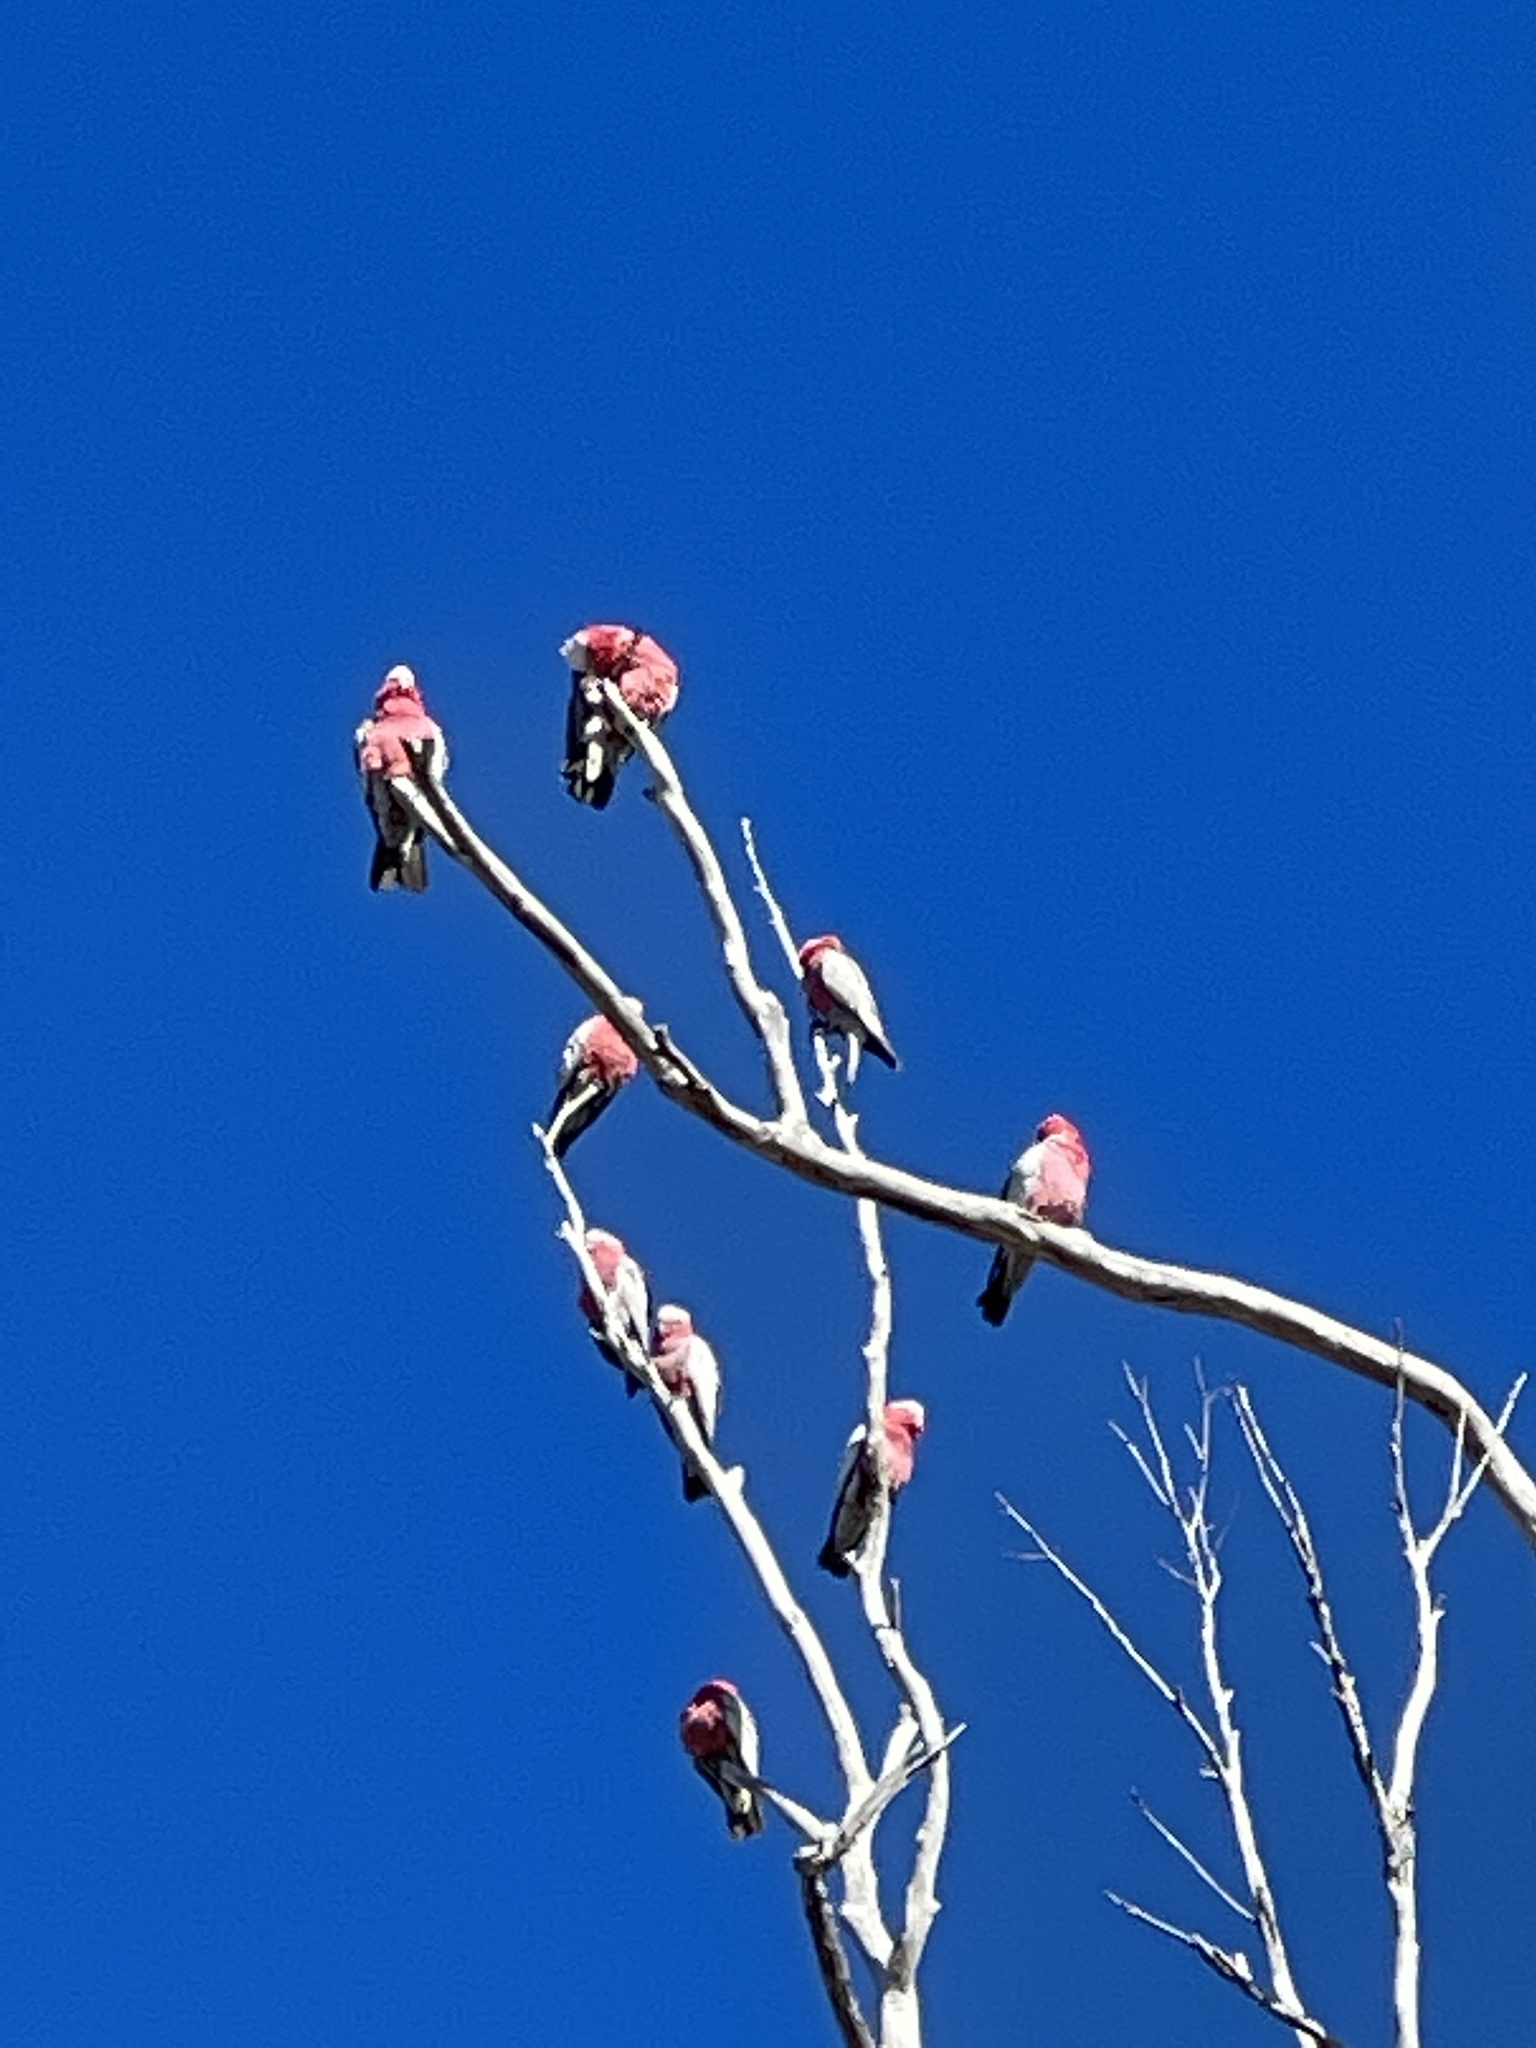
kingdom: Animalia
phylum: Chordata
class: Aves
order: Psittaciformes
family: Psittacidae
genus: Eolophus
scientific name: Eolophus roseicapilla
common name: Galah
